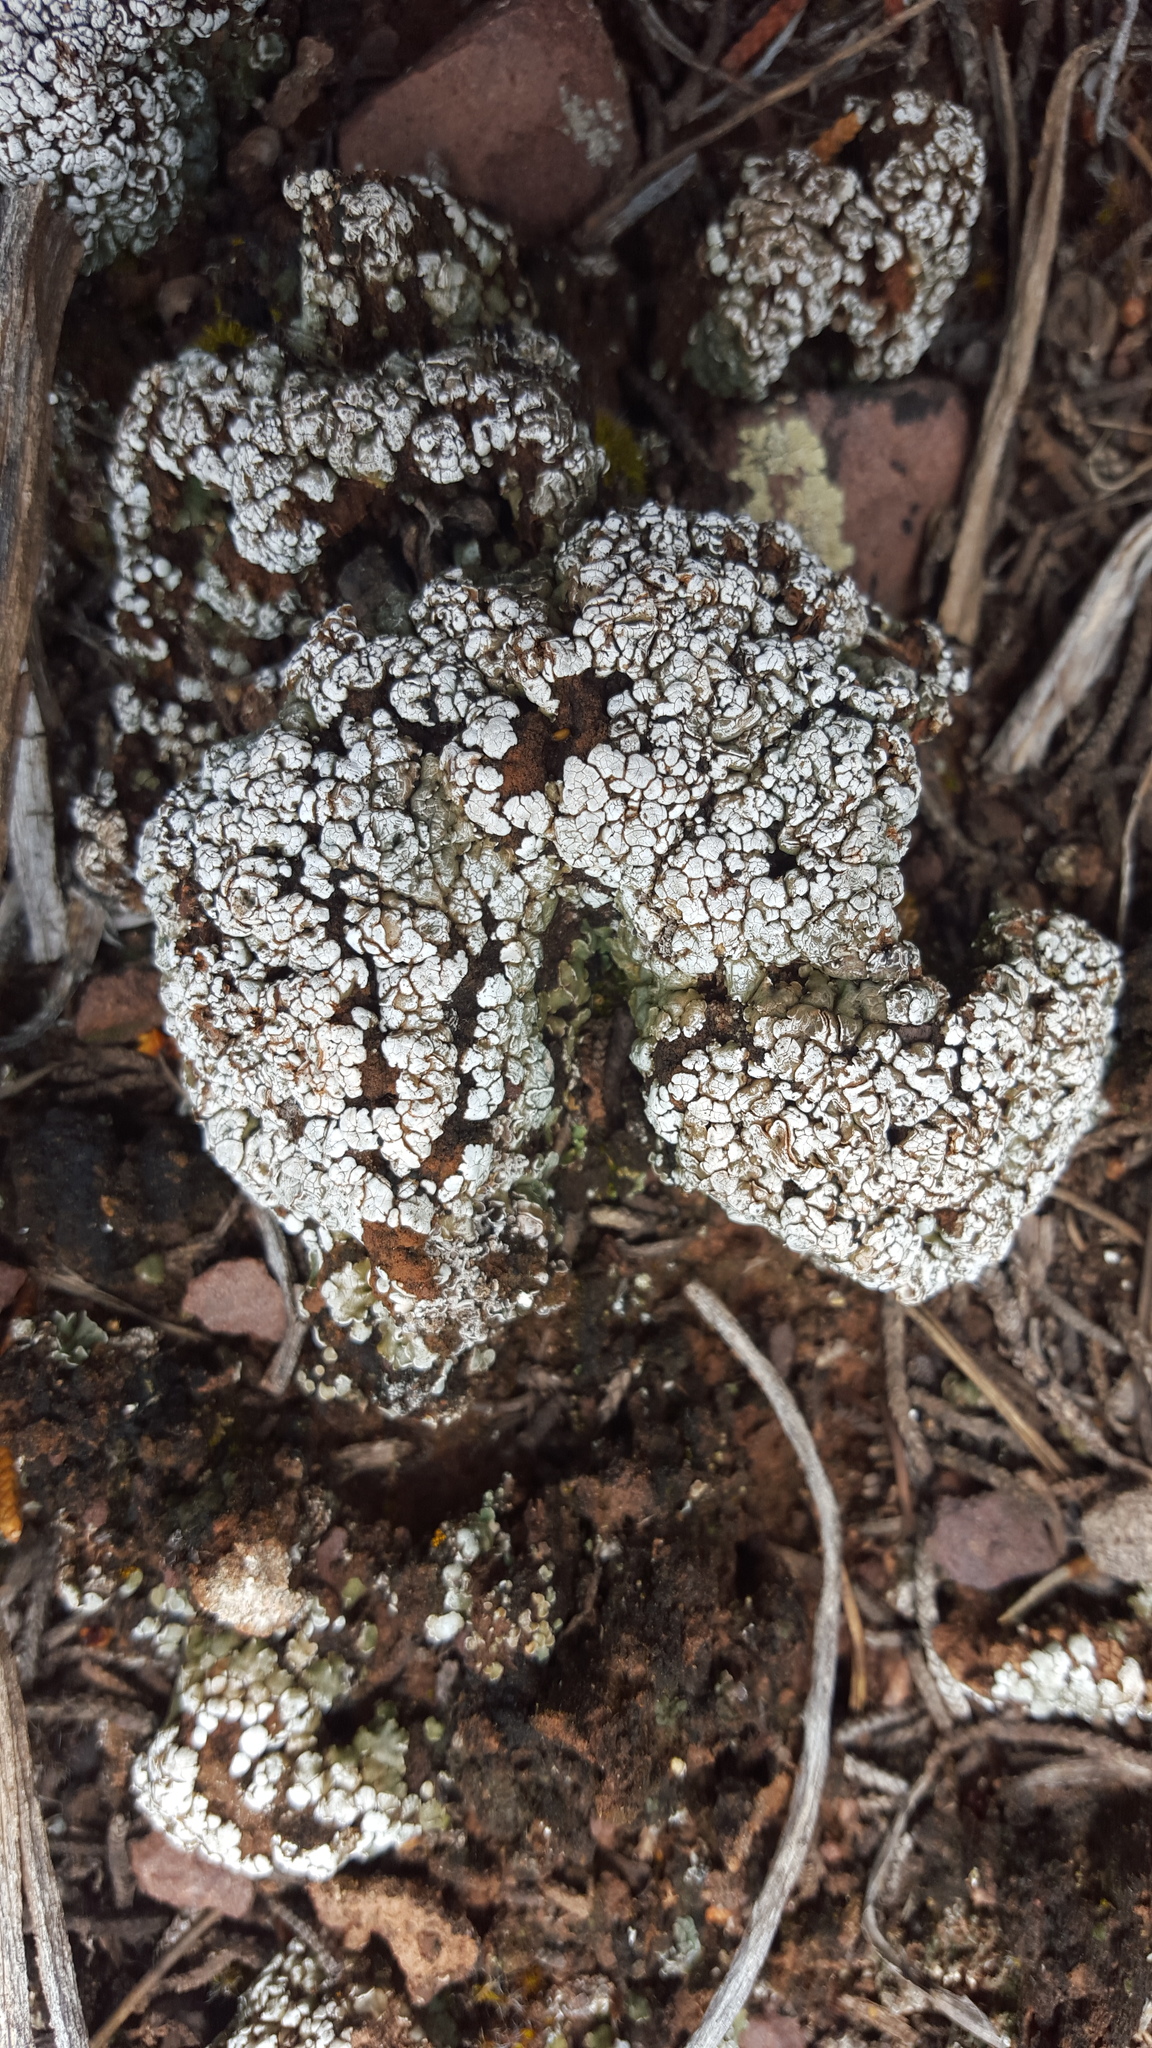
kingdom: Fungi
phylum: Ascomycota
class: Lecanoromycetes
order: Lecanorales
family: Psoraceae
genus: Psora
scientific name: Psora cerebriformis
